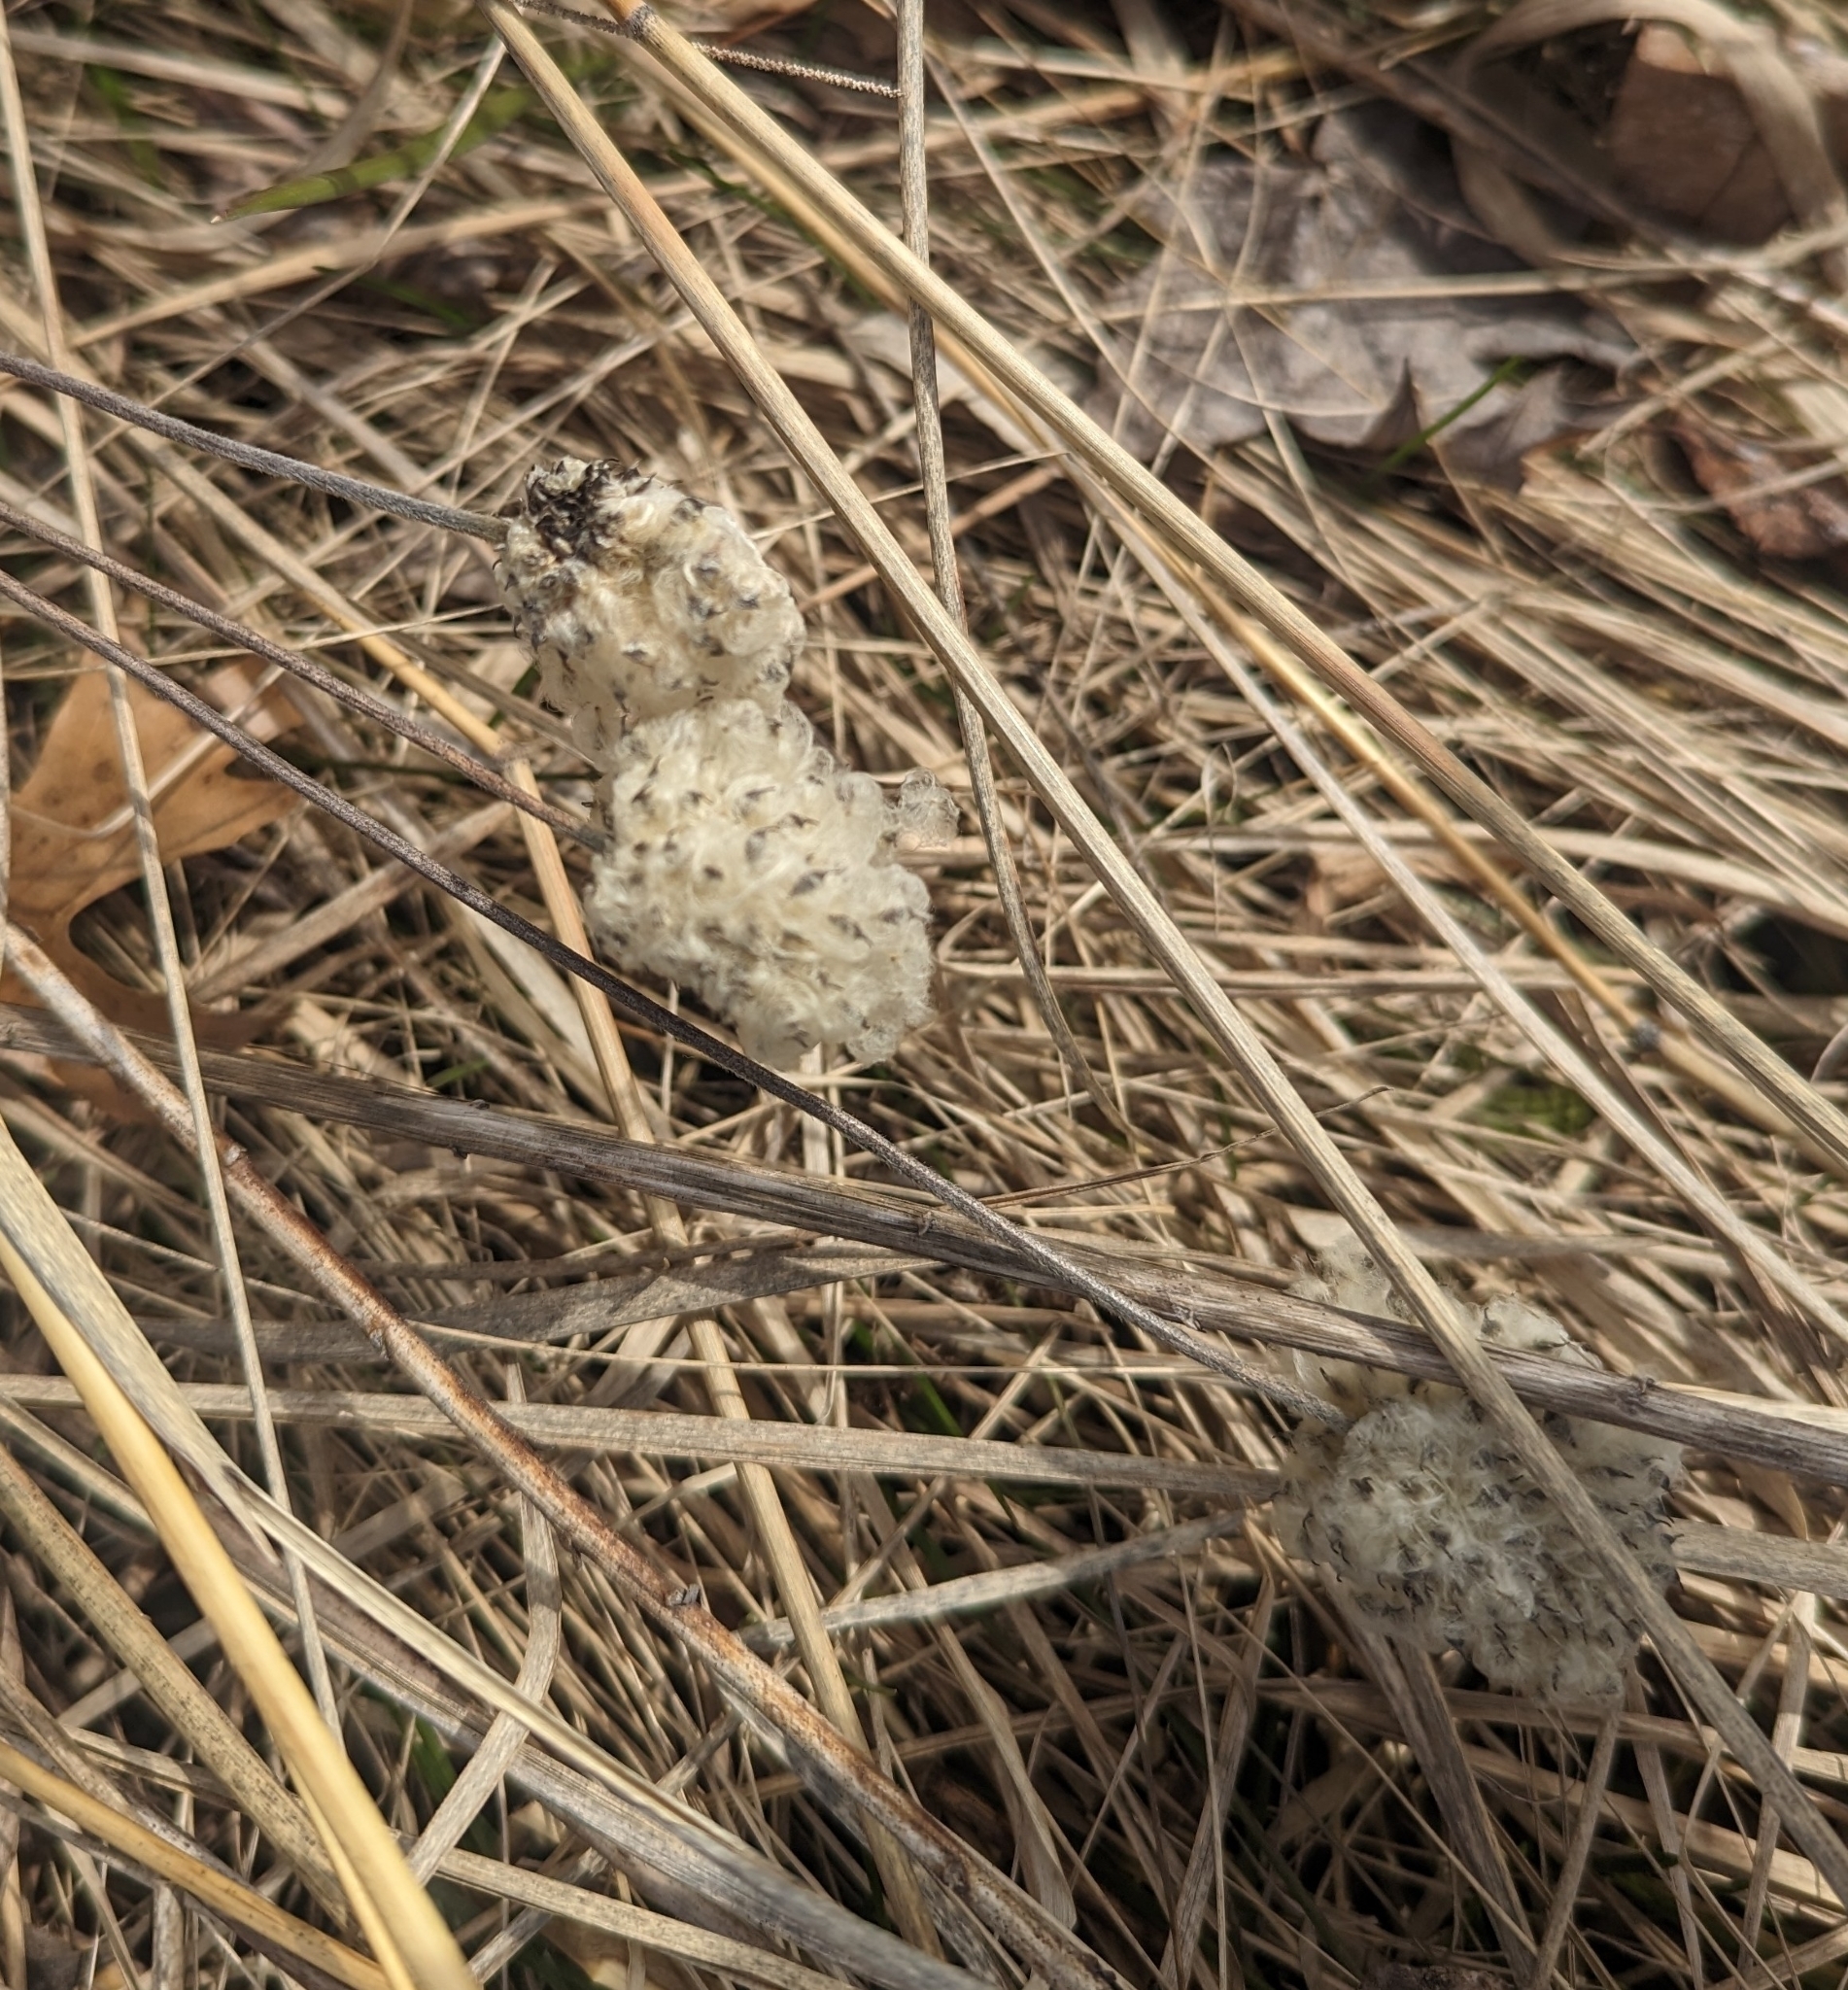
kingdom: Plantae
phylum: Tracheophyta
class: Magnoliopsida
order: Ranunculales
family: Ranunculaceae
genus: Anemone
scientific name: Anemone virginiana
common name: Tall anemone
